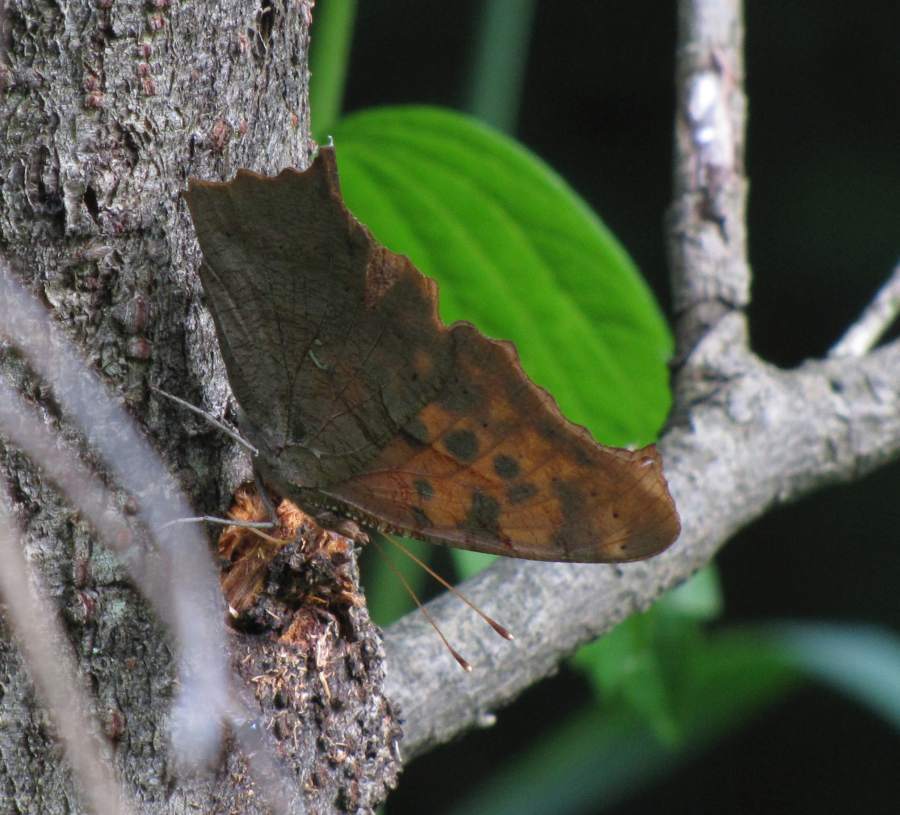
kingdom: Animalia
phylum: Arthropoda
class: Insecta
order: Lepidoptera
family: Nymphalidae
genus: Polygonia
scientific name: Polygonia interrogationis
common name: Question mark
